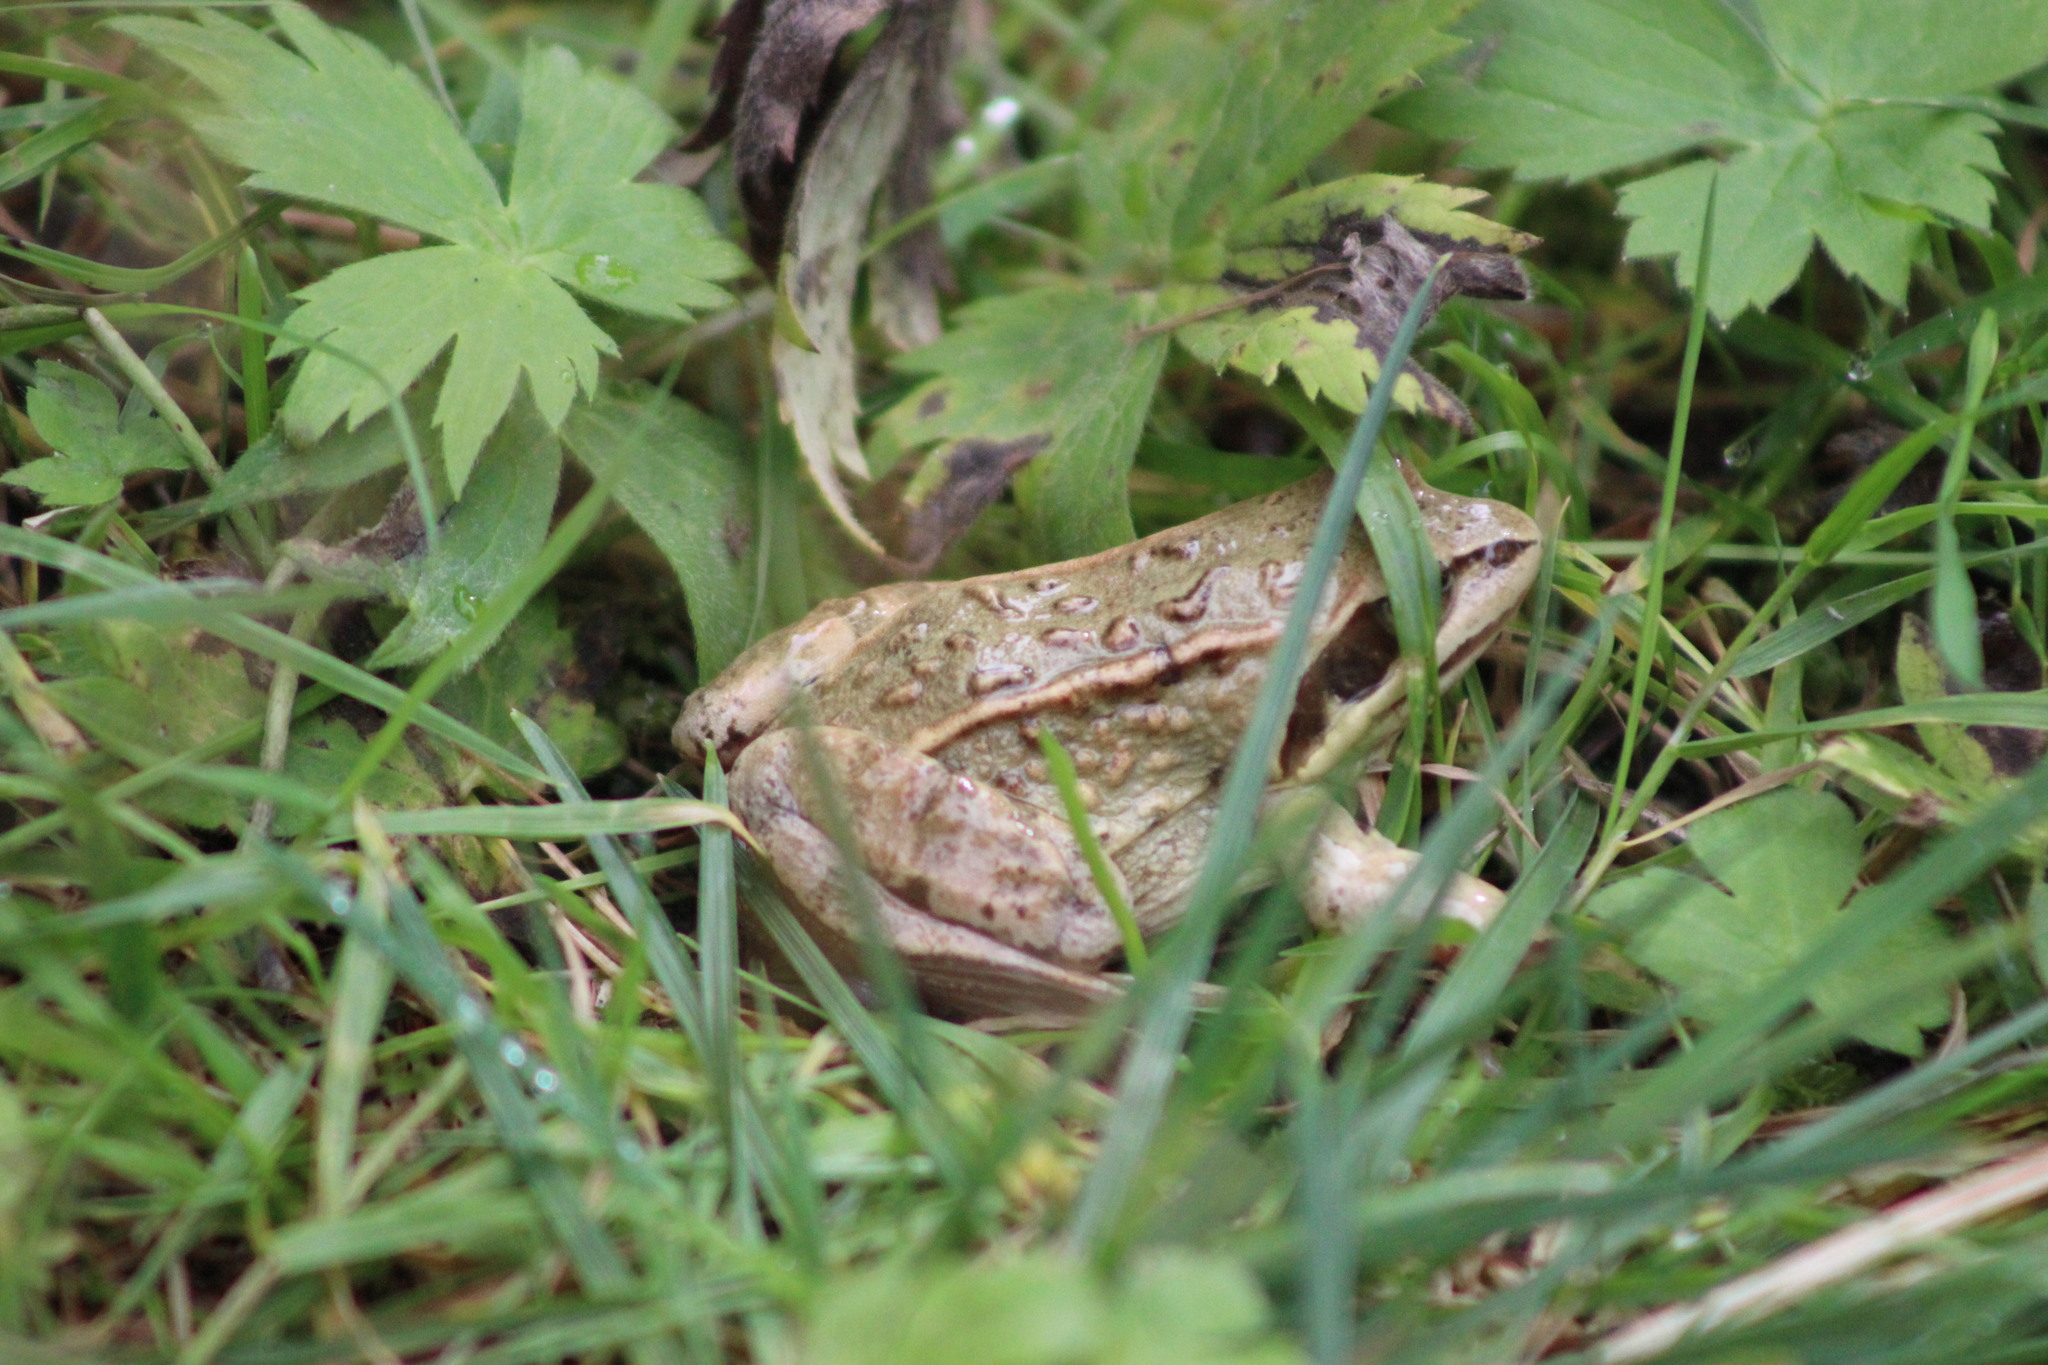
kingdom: Animalia
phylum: Chordata
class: Amphibia
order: Anura
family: Ranidae
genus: Rana
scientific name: Rana arvalis
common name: Moor frog
